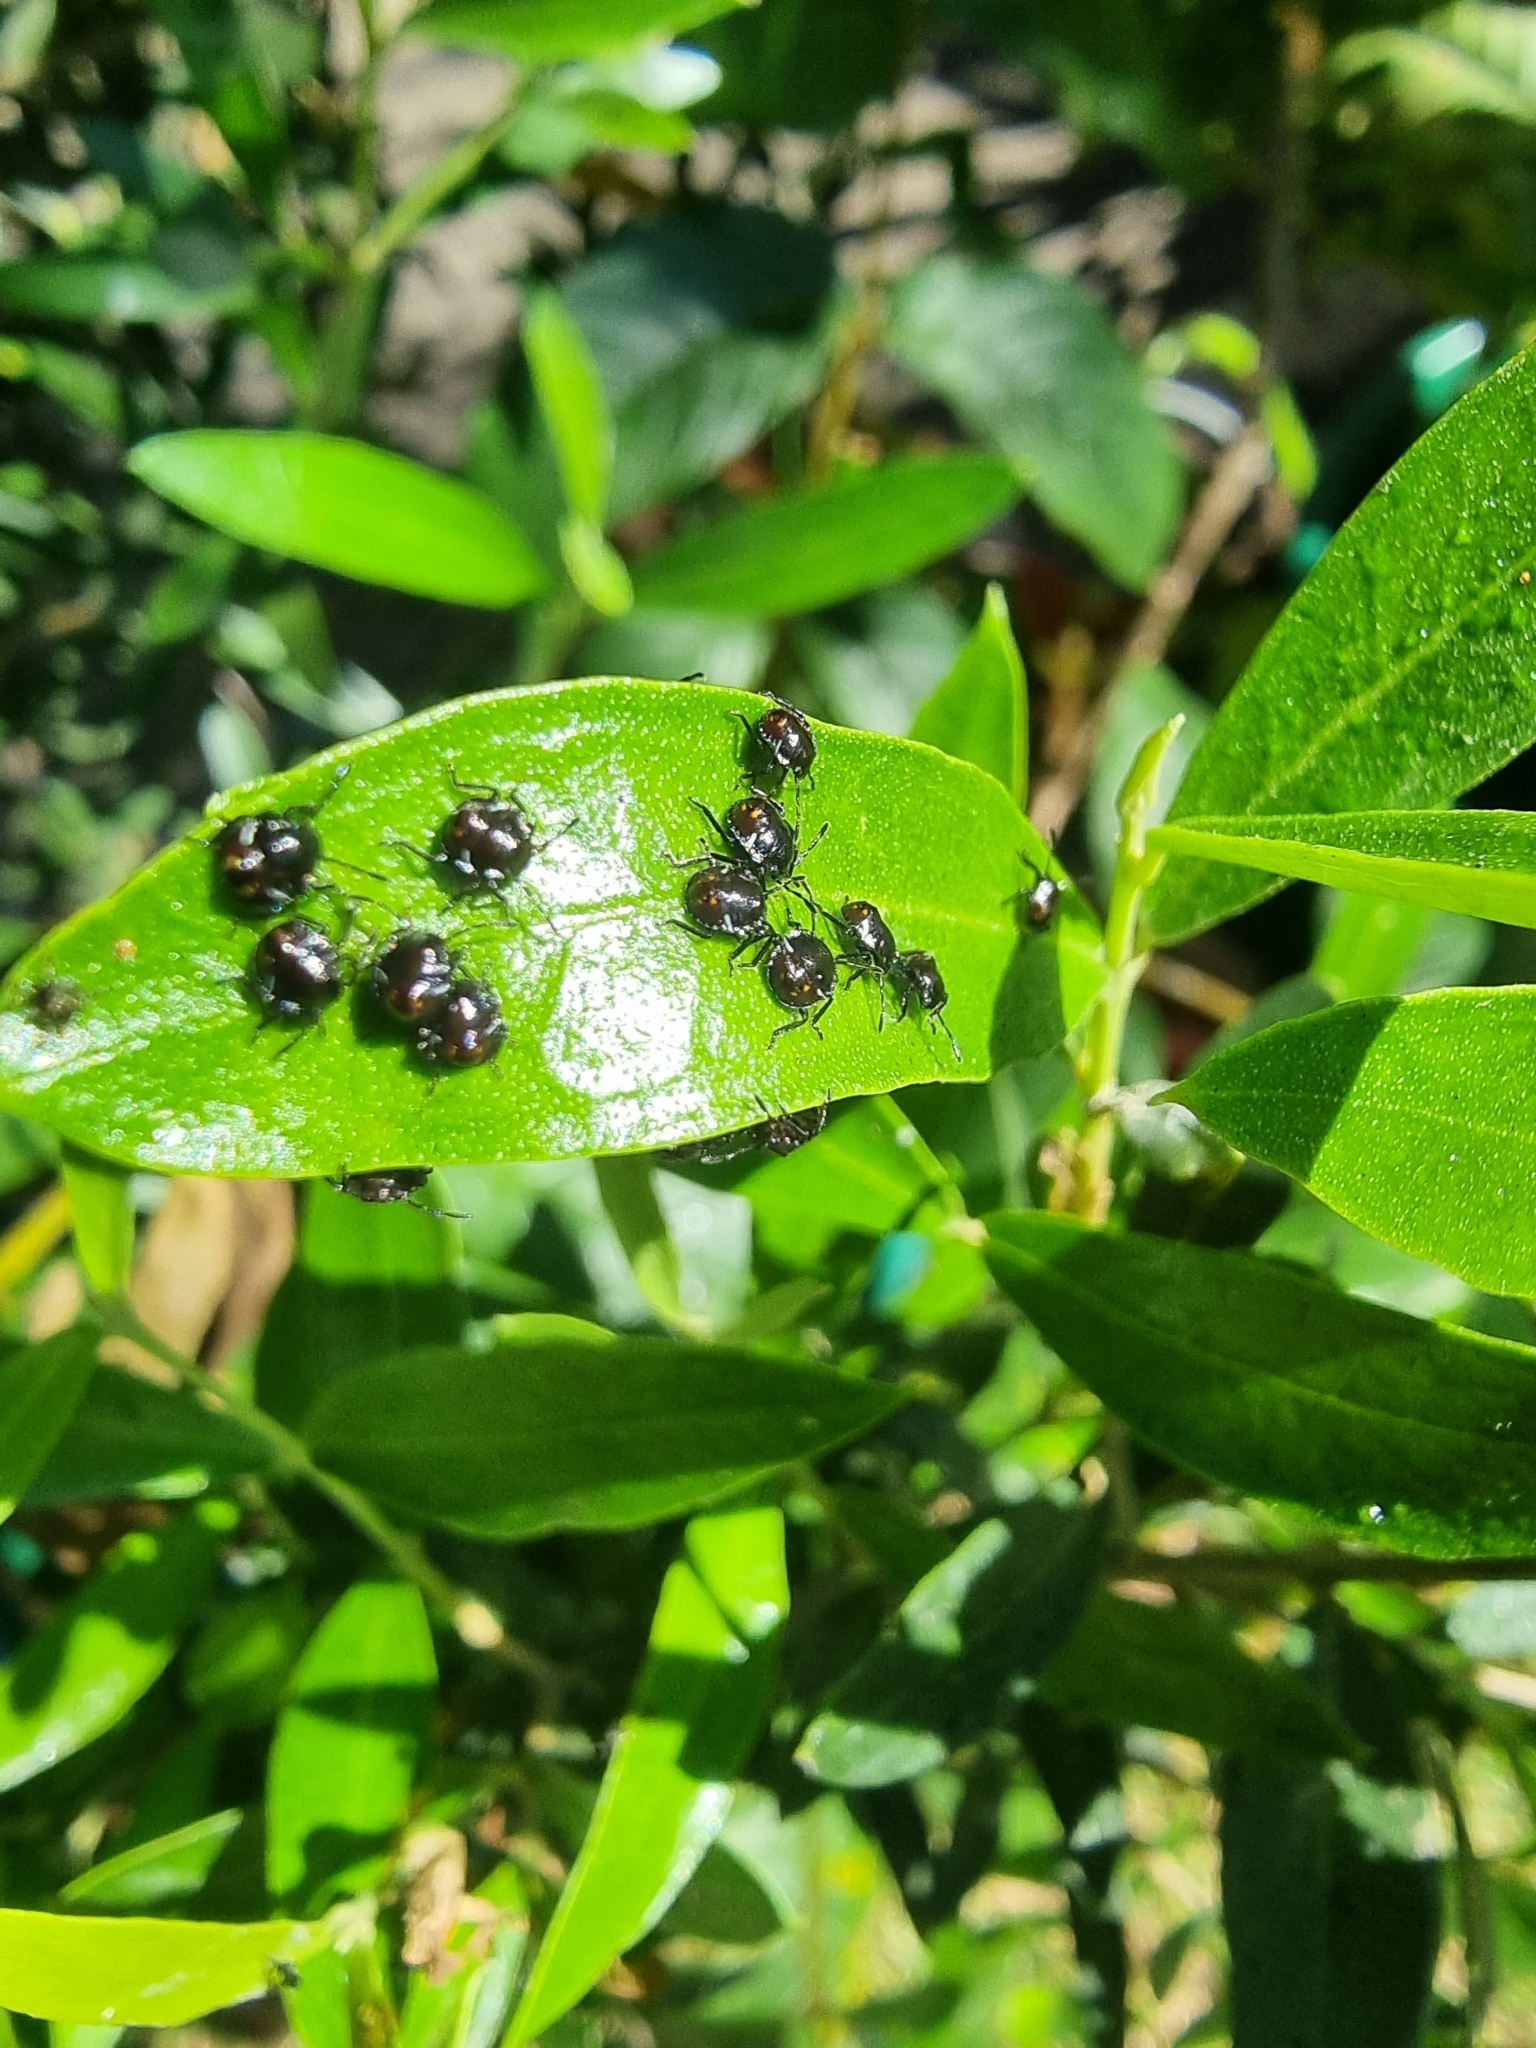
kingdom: Animalia
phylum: Arthropoda
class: Insecta
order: Hemiptera
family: Pentatomidae
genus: Nezara
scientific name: Nezara viridula
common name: Southern green stink bug
